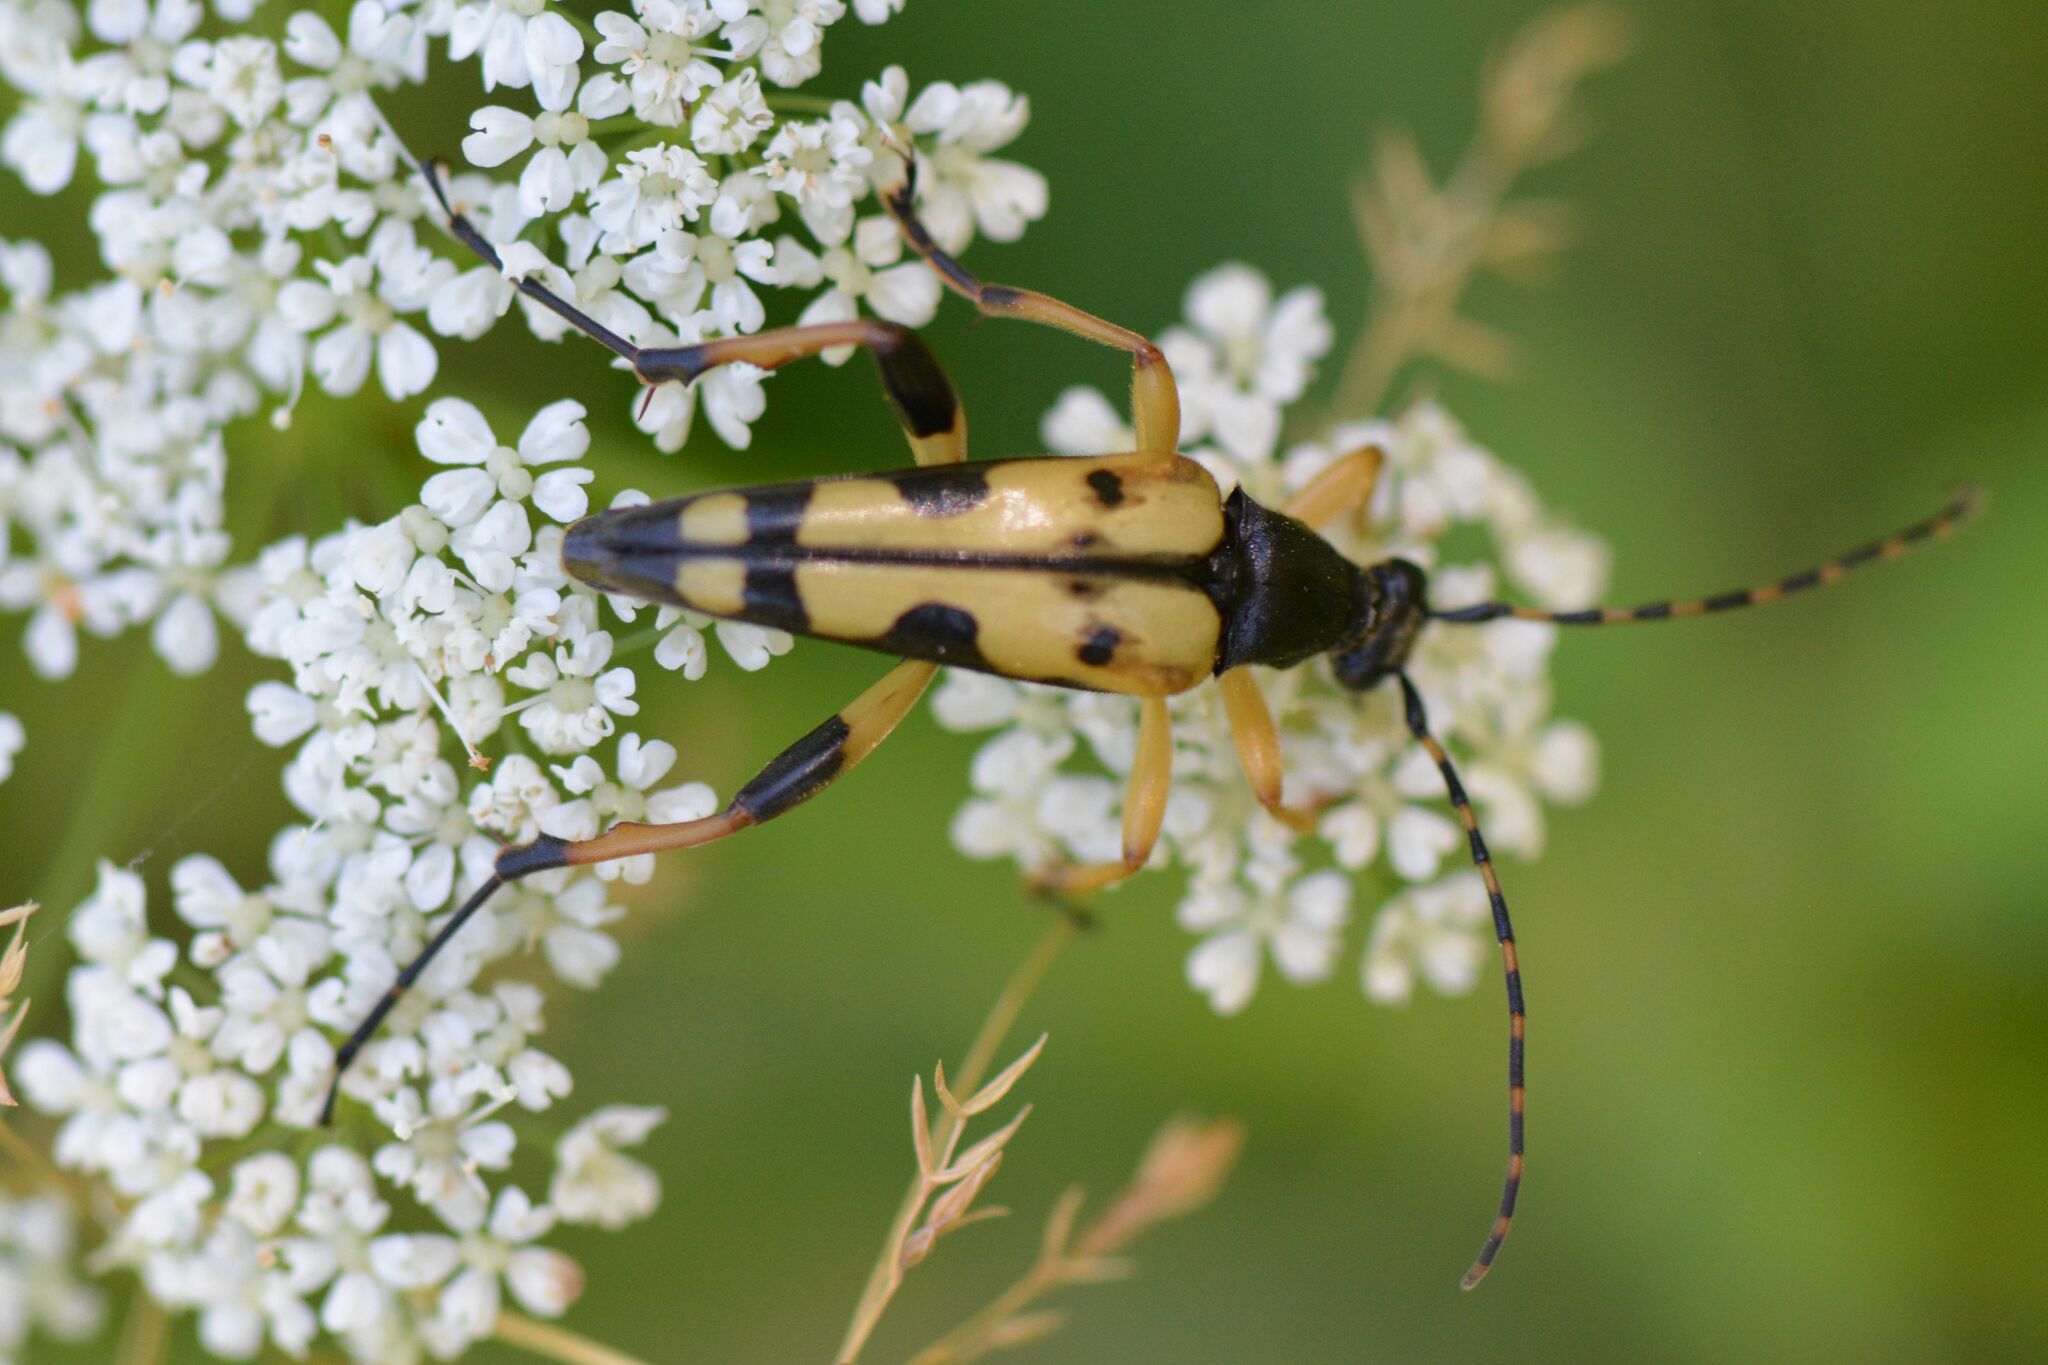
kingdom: Animalia
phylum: Arthropoda
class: Insecta
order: Coleoptera
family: Cerambycidae
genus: Rutpela
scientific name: Rutpela maculata
